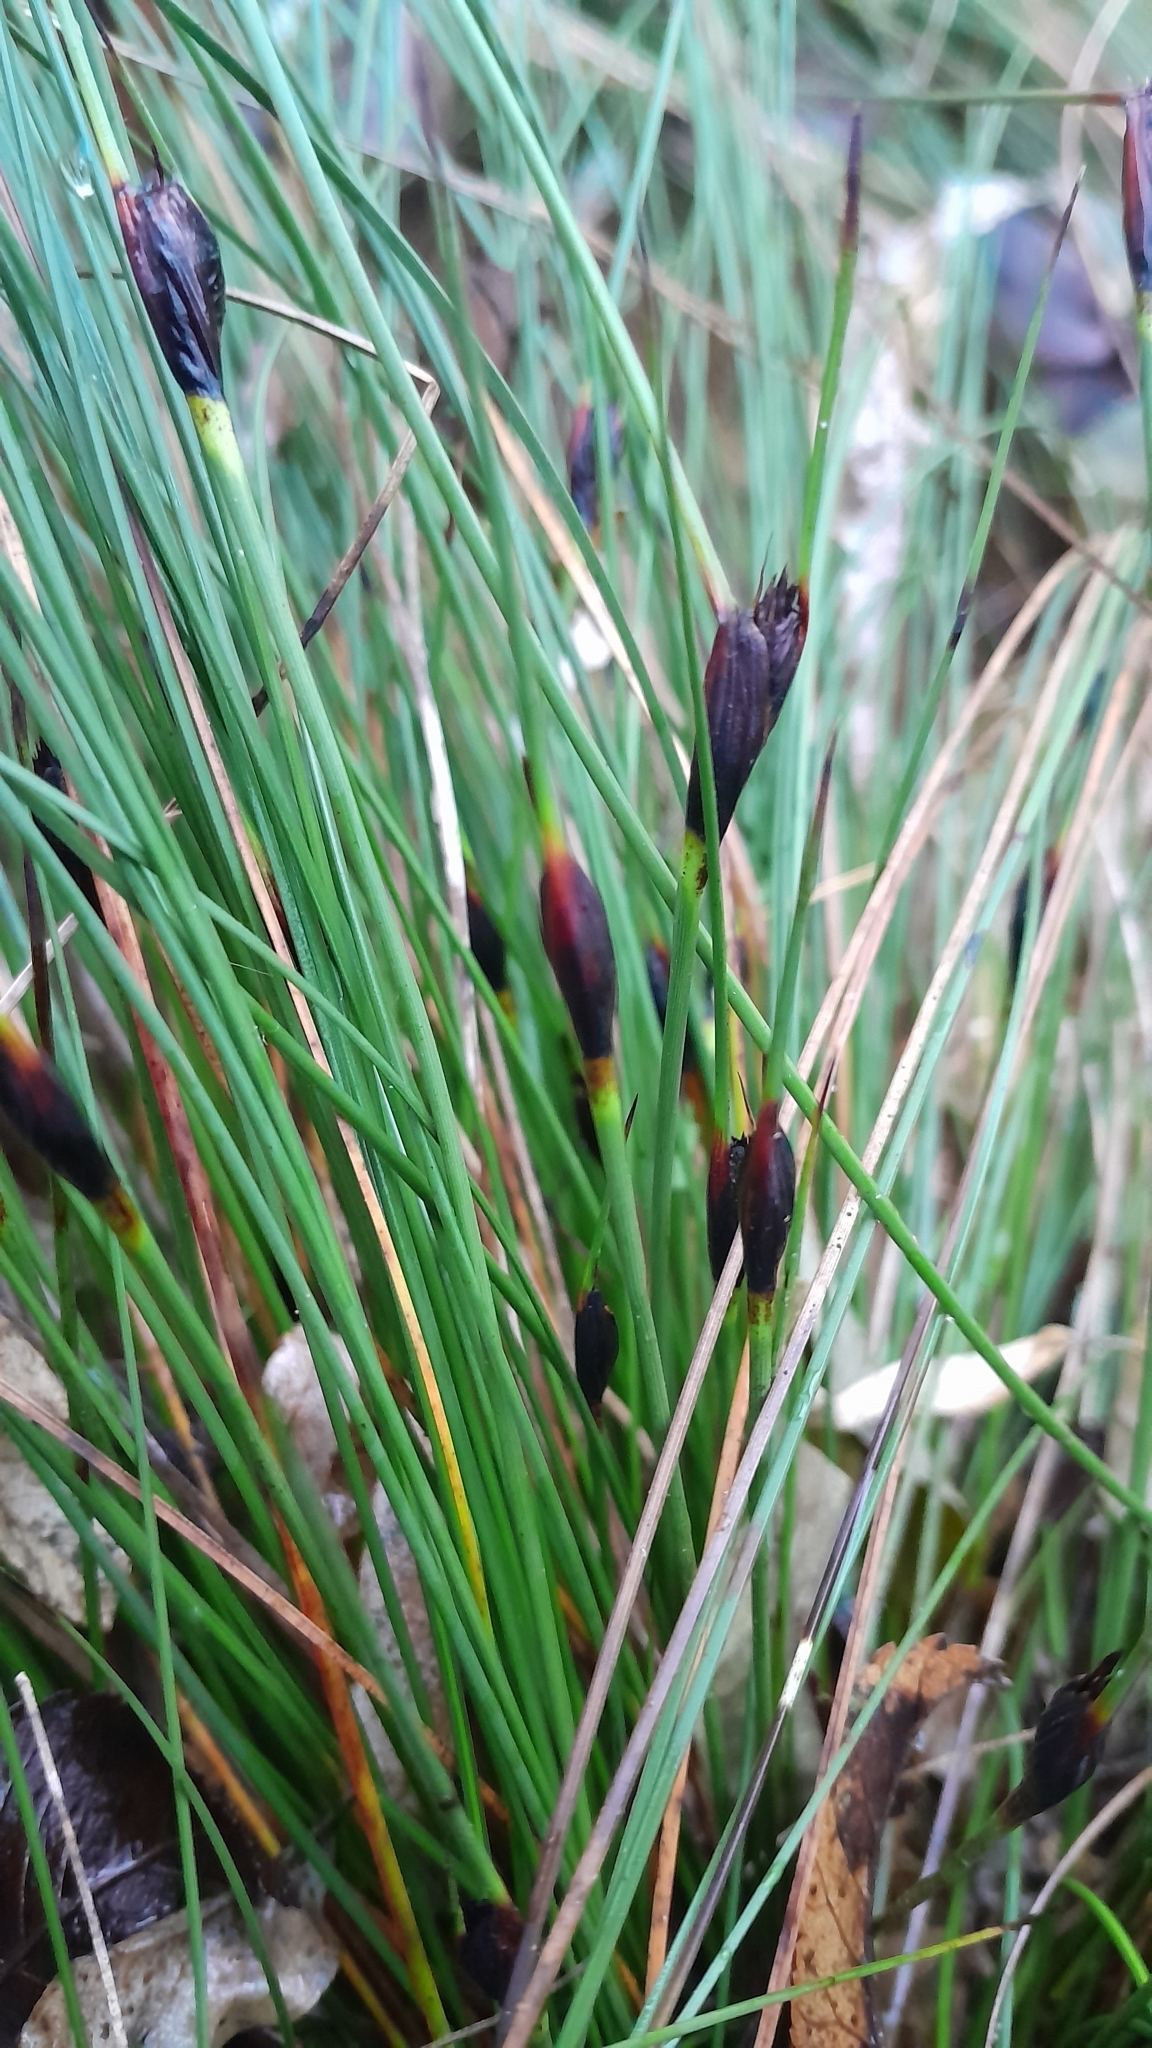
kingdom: Plantae
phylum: Tracheophyta
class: Liliopsida
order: Poales
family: Cyperaceae
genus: Schoenus
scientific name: Schoenus nigricans
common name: Black bog-rush
